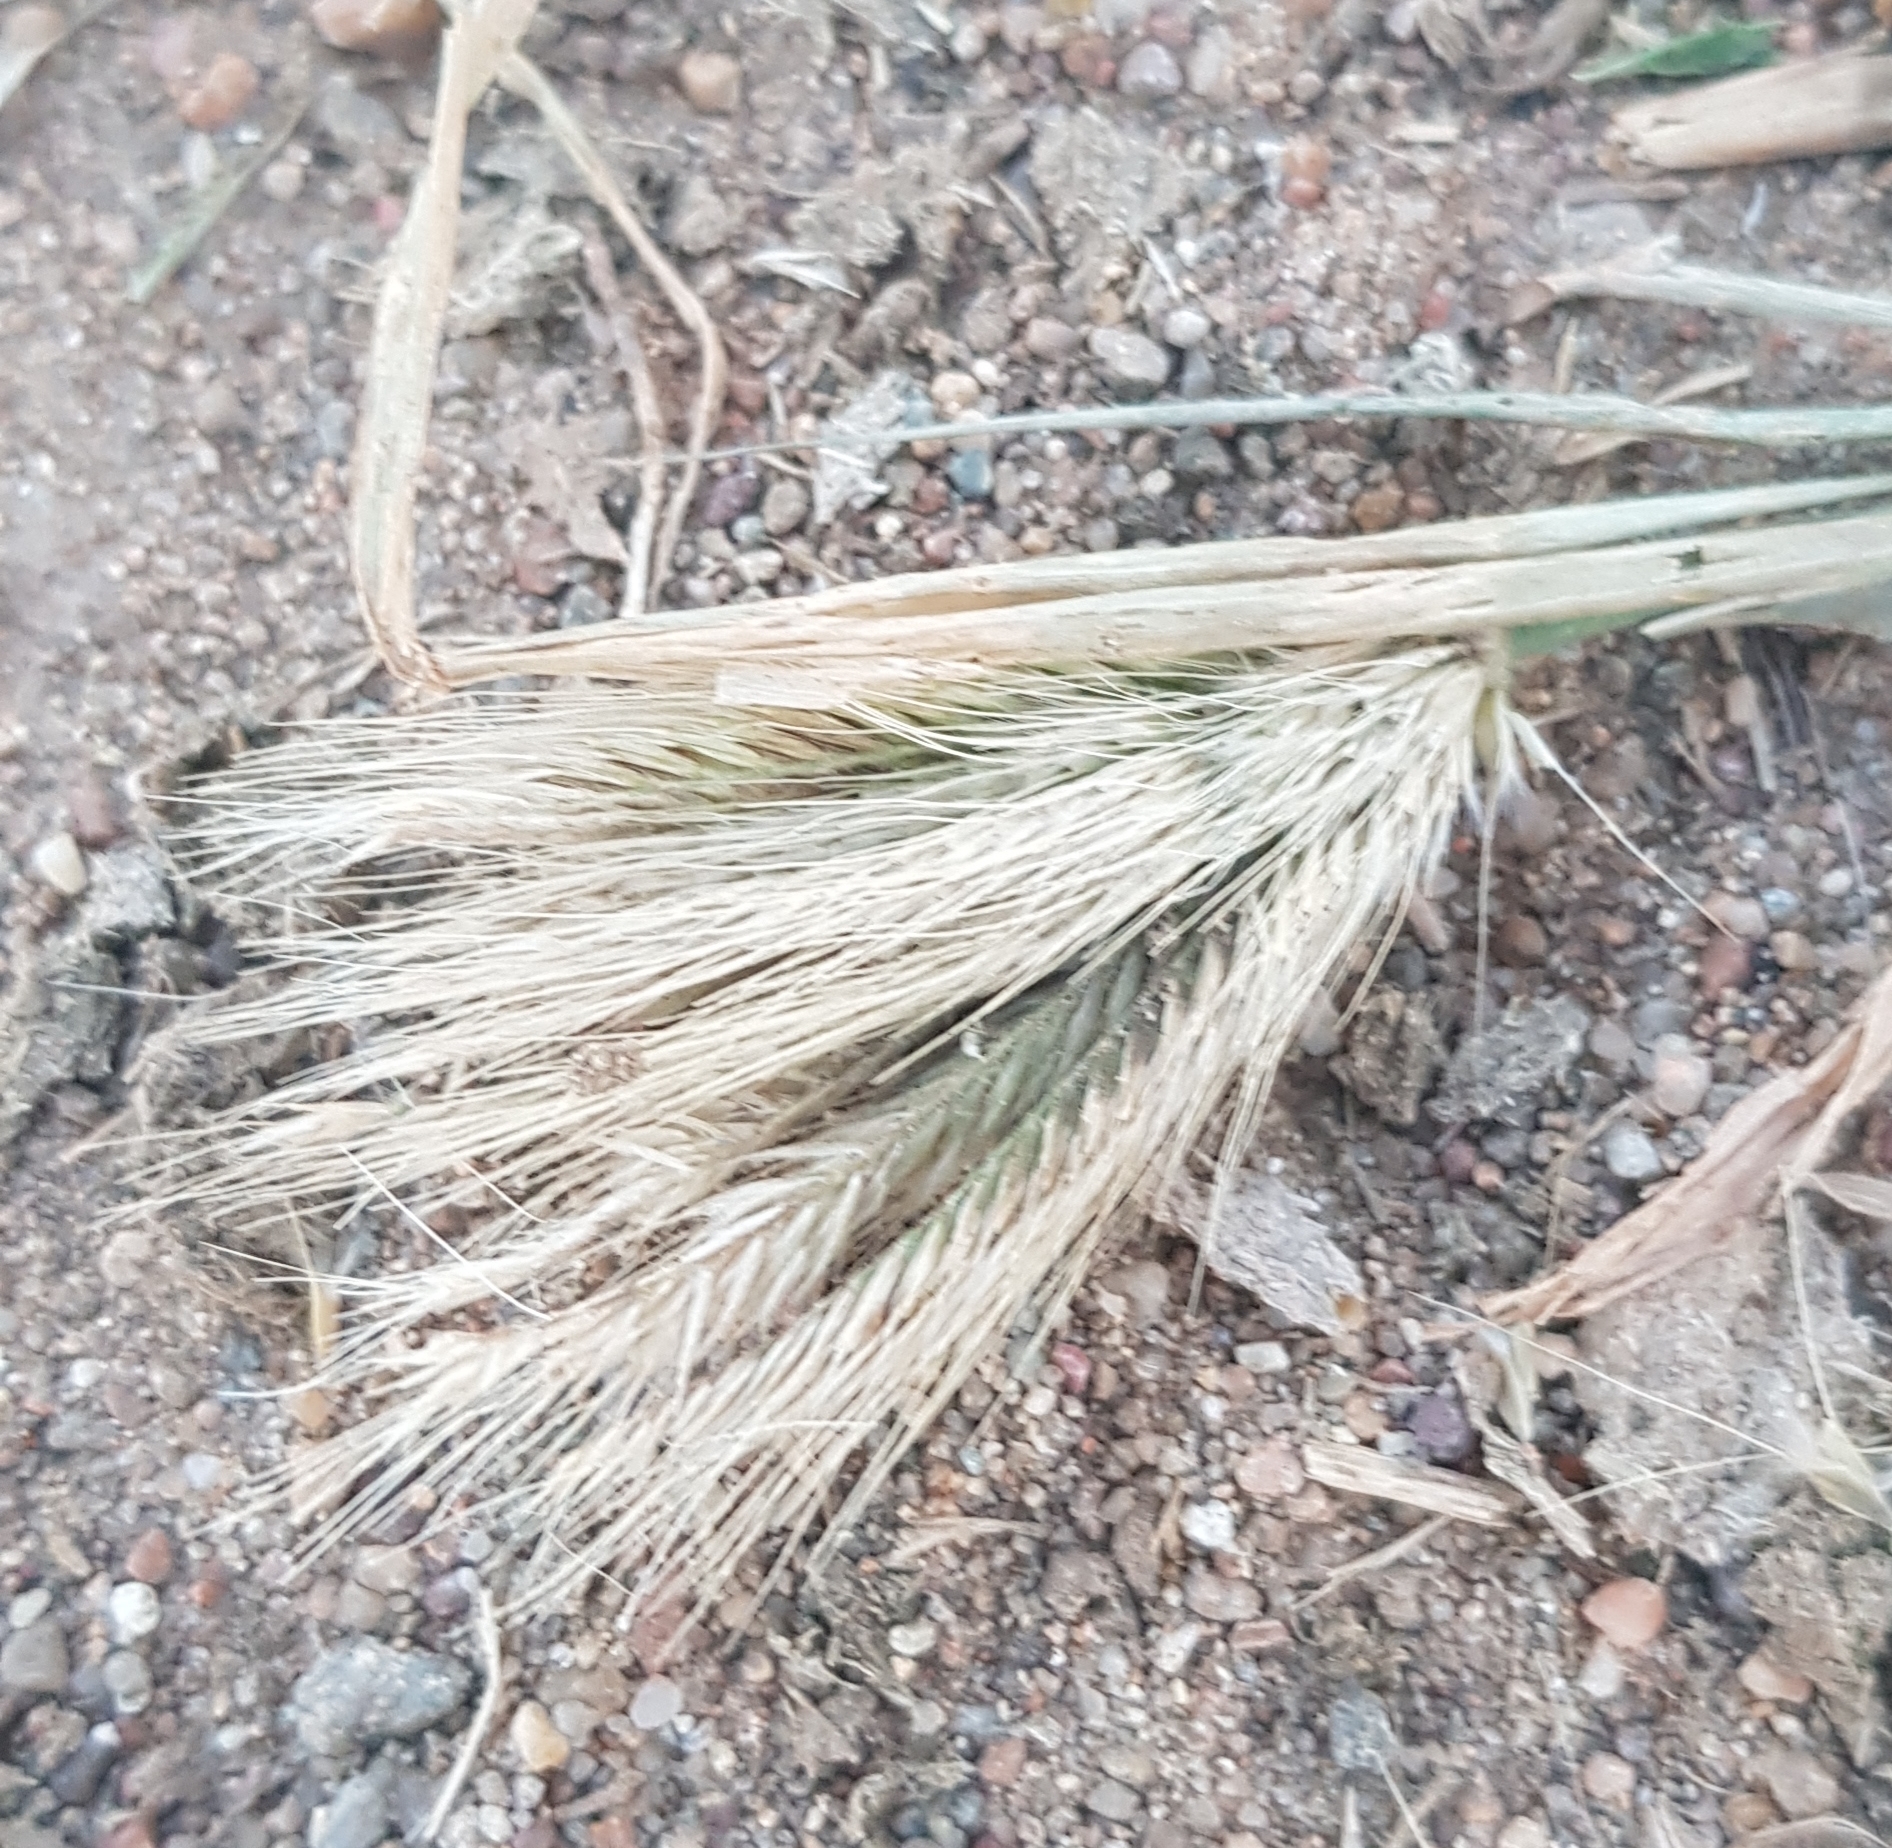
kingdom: Plantae
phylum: Tracheophyta
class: Liliopsida
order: Poales
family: Poaceae
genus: Chloris
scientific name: Chloris virgata
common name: Feathery rhodes-grass
